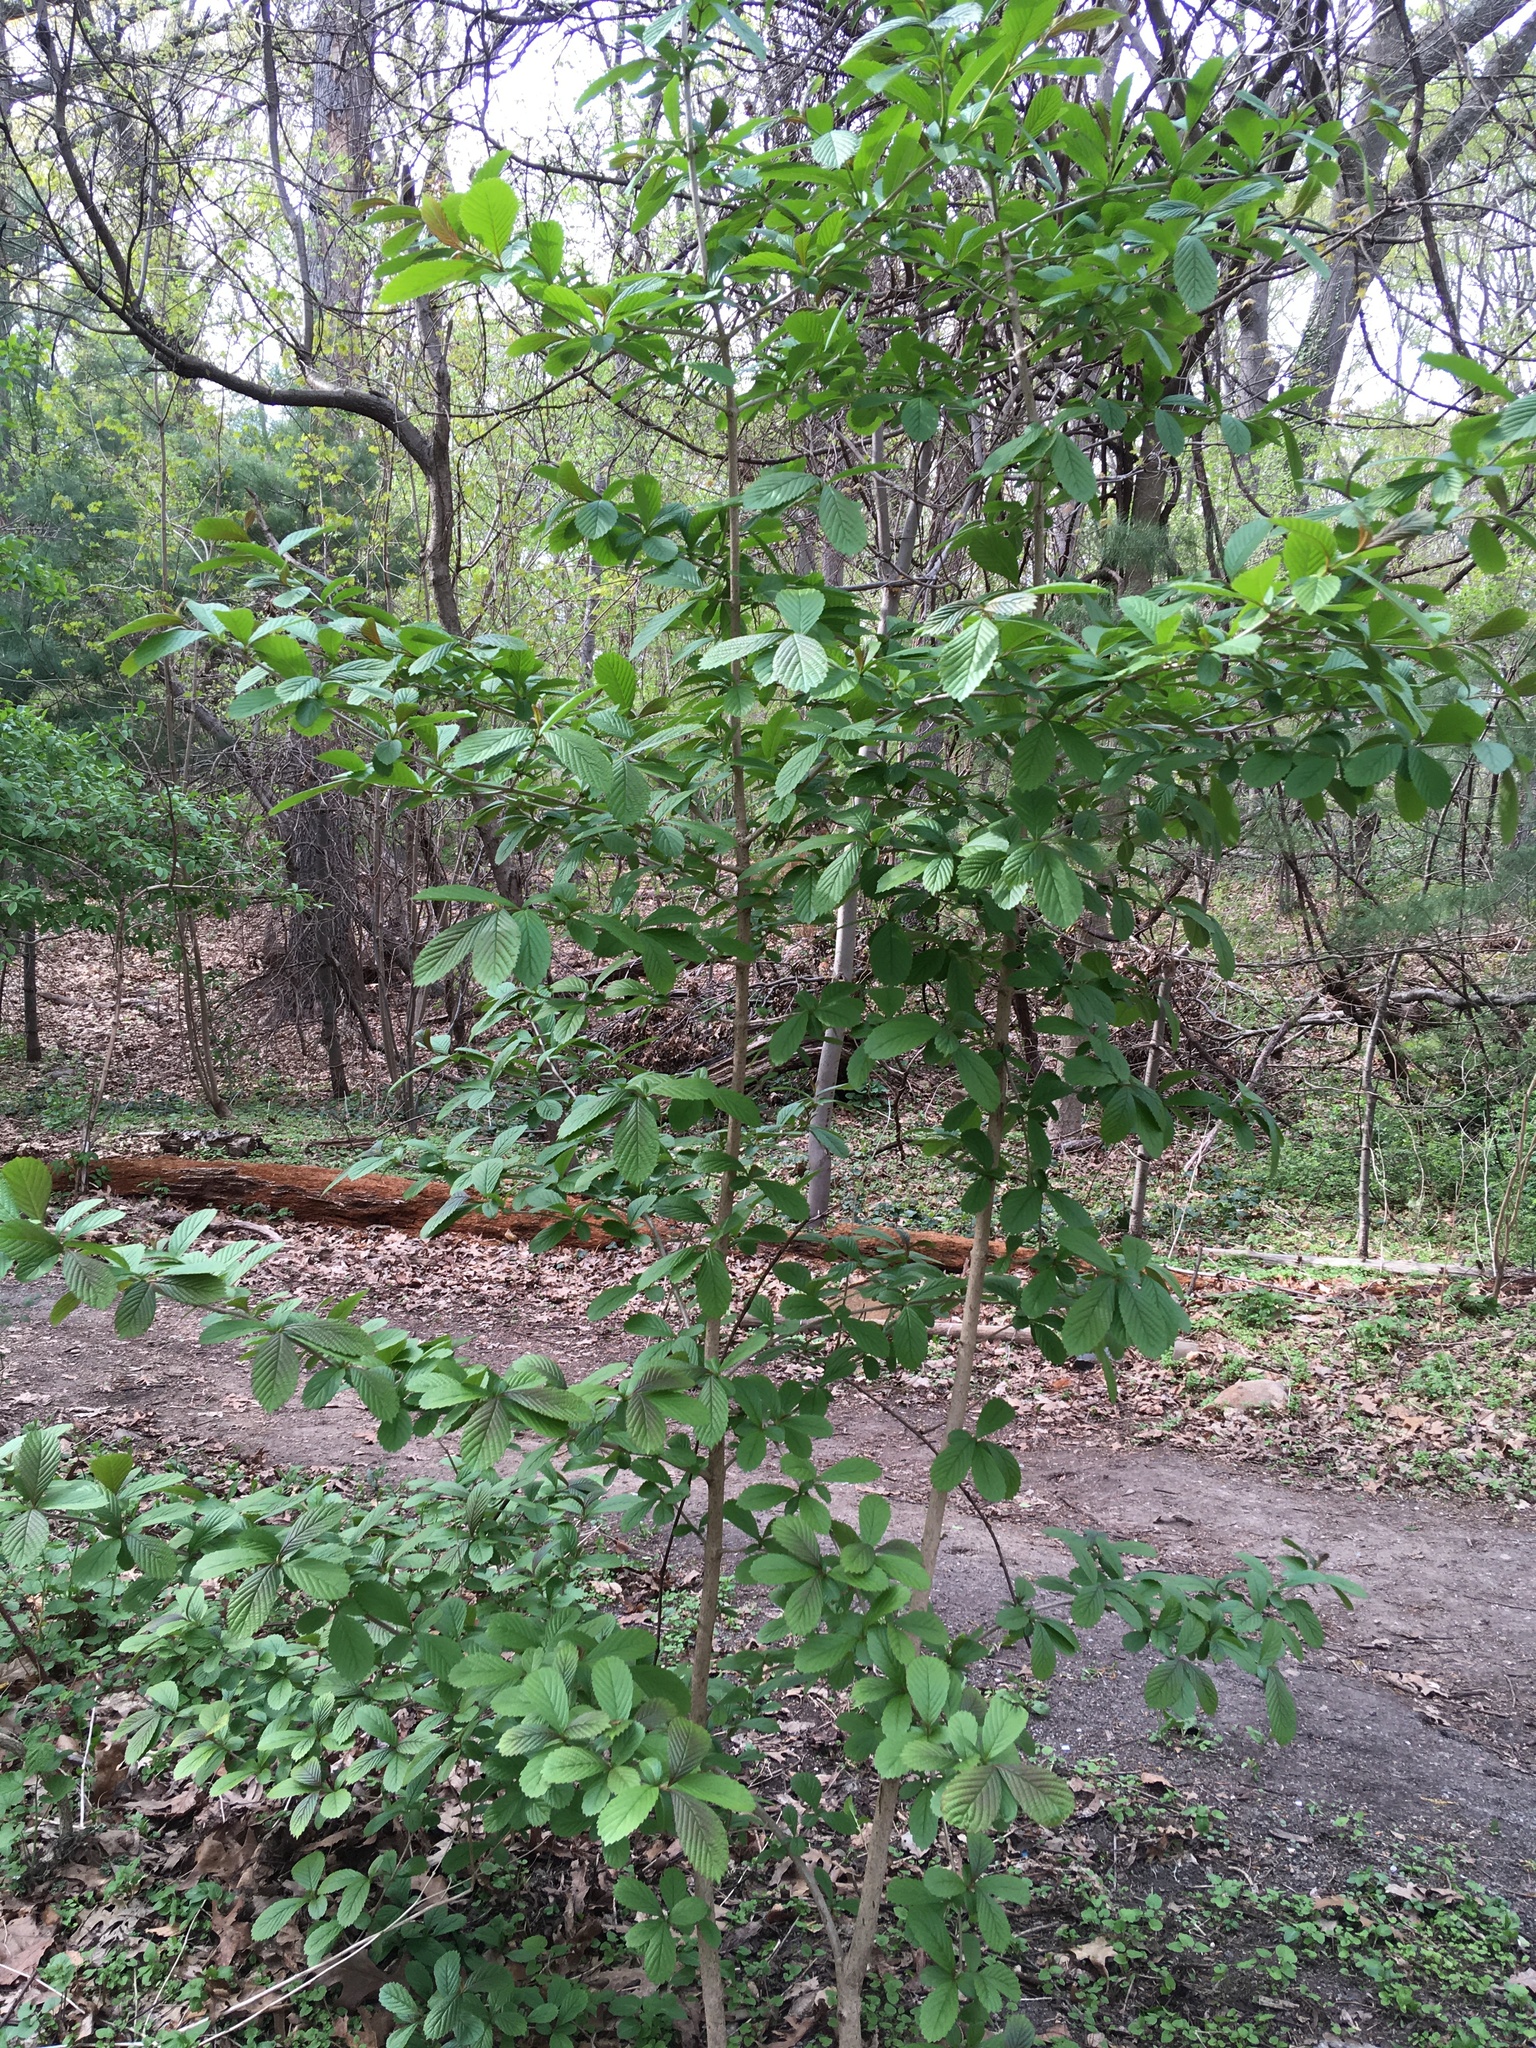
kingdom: Plantae
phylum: Tracheophyta
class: Magnoliopsida
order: Dipsacales
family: Viburnaceae
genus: Viburnum
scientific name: Viburnum sieboldii
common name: Siebold's arrowwood
